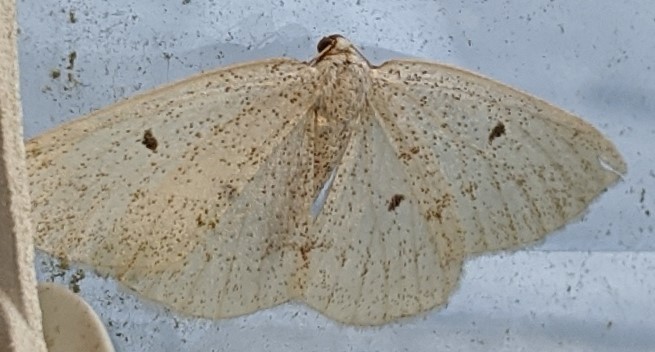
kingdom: Animalia
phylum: Arthropoda
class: Insecta
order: Lepidoptera
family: Geometridae
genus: Lomographa
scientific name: Lomographa glomeraria
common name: Gray spring moth
